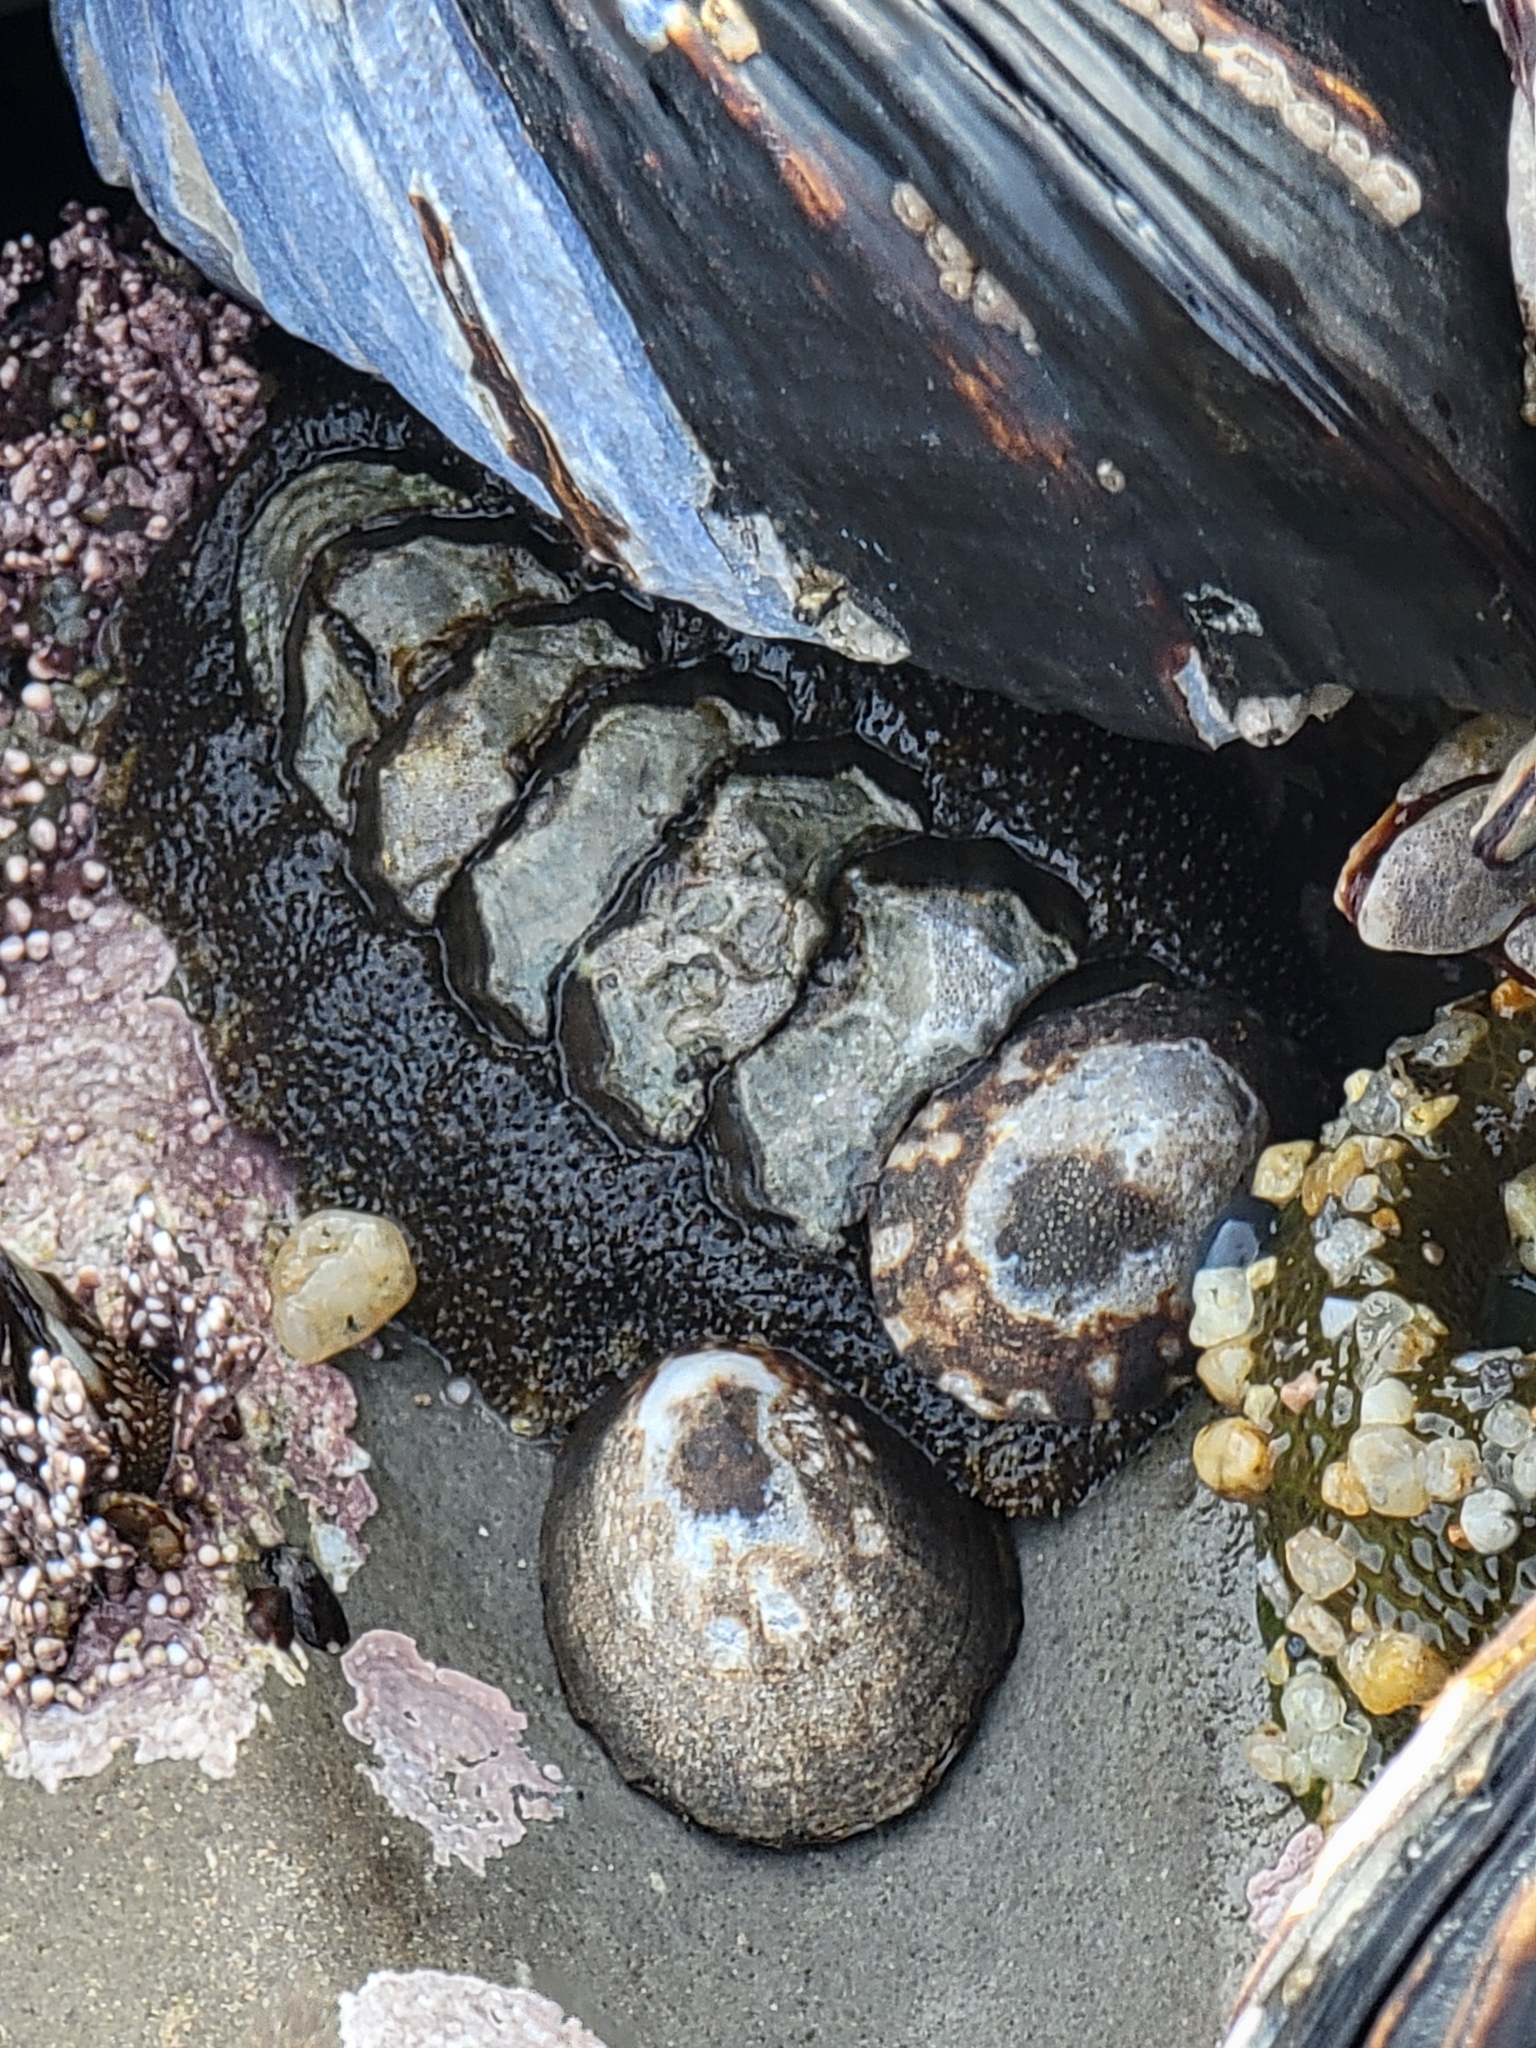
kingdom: Animalia
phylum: Mollusca
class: Polyplacophora
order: Chitonida
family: Tonicellidae
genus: Nuttallina
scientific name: Nuttallina californica
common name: California nuttall chiton
